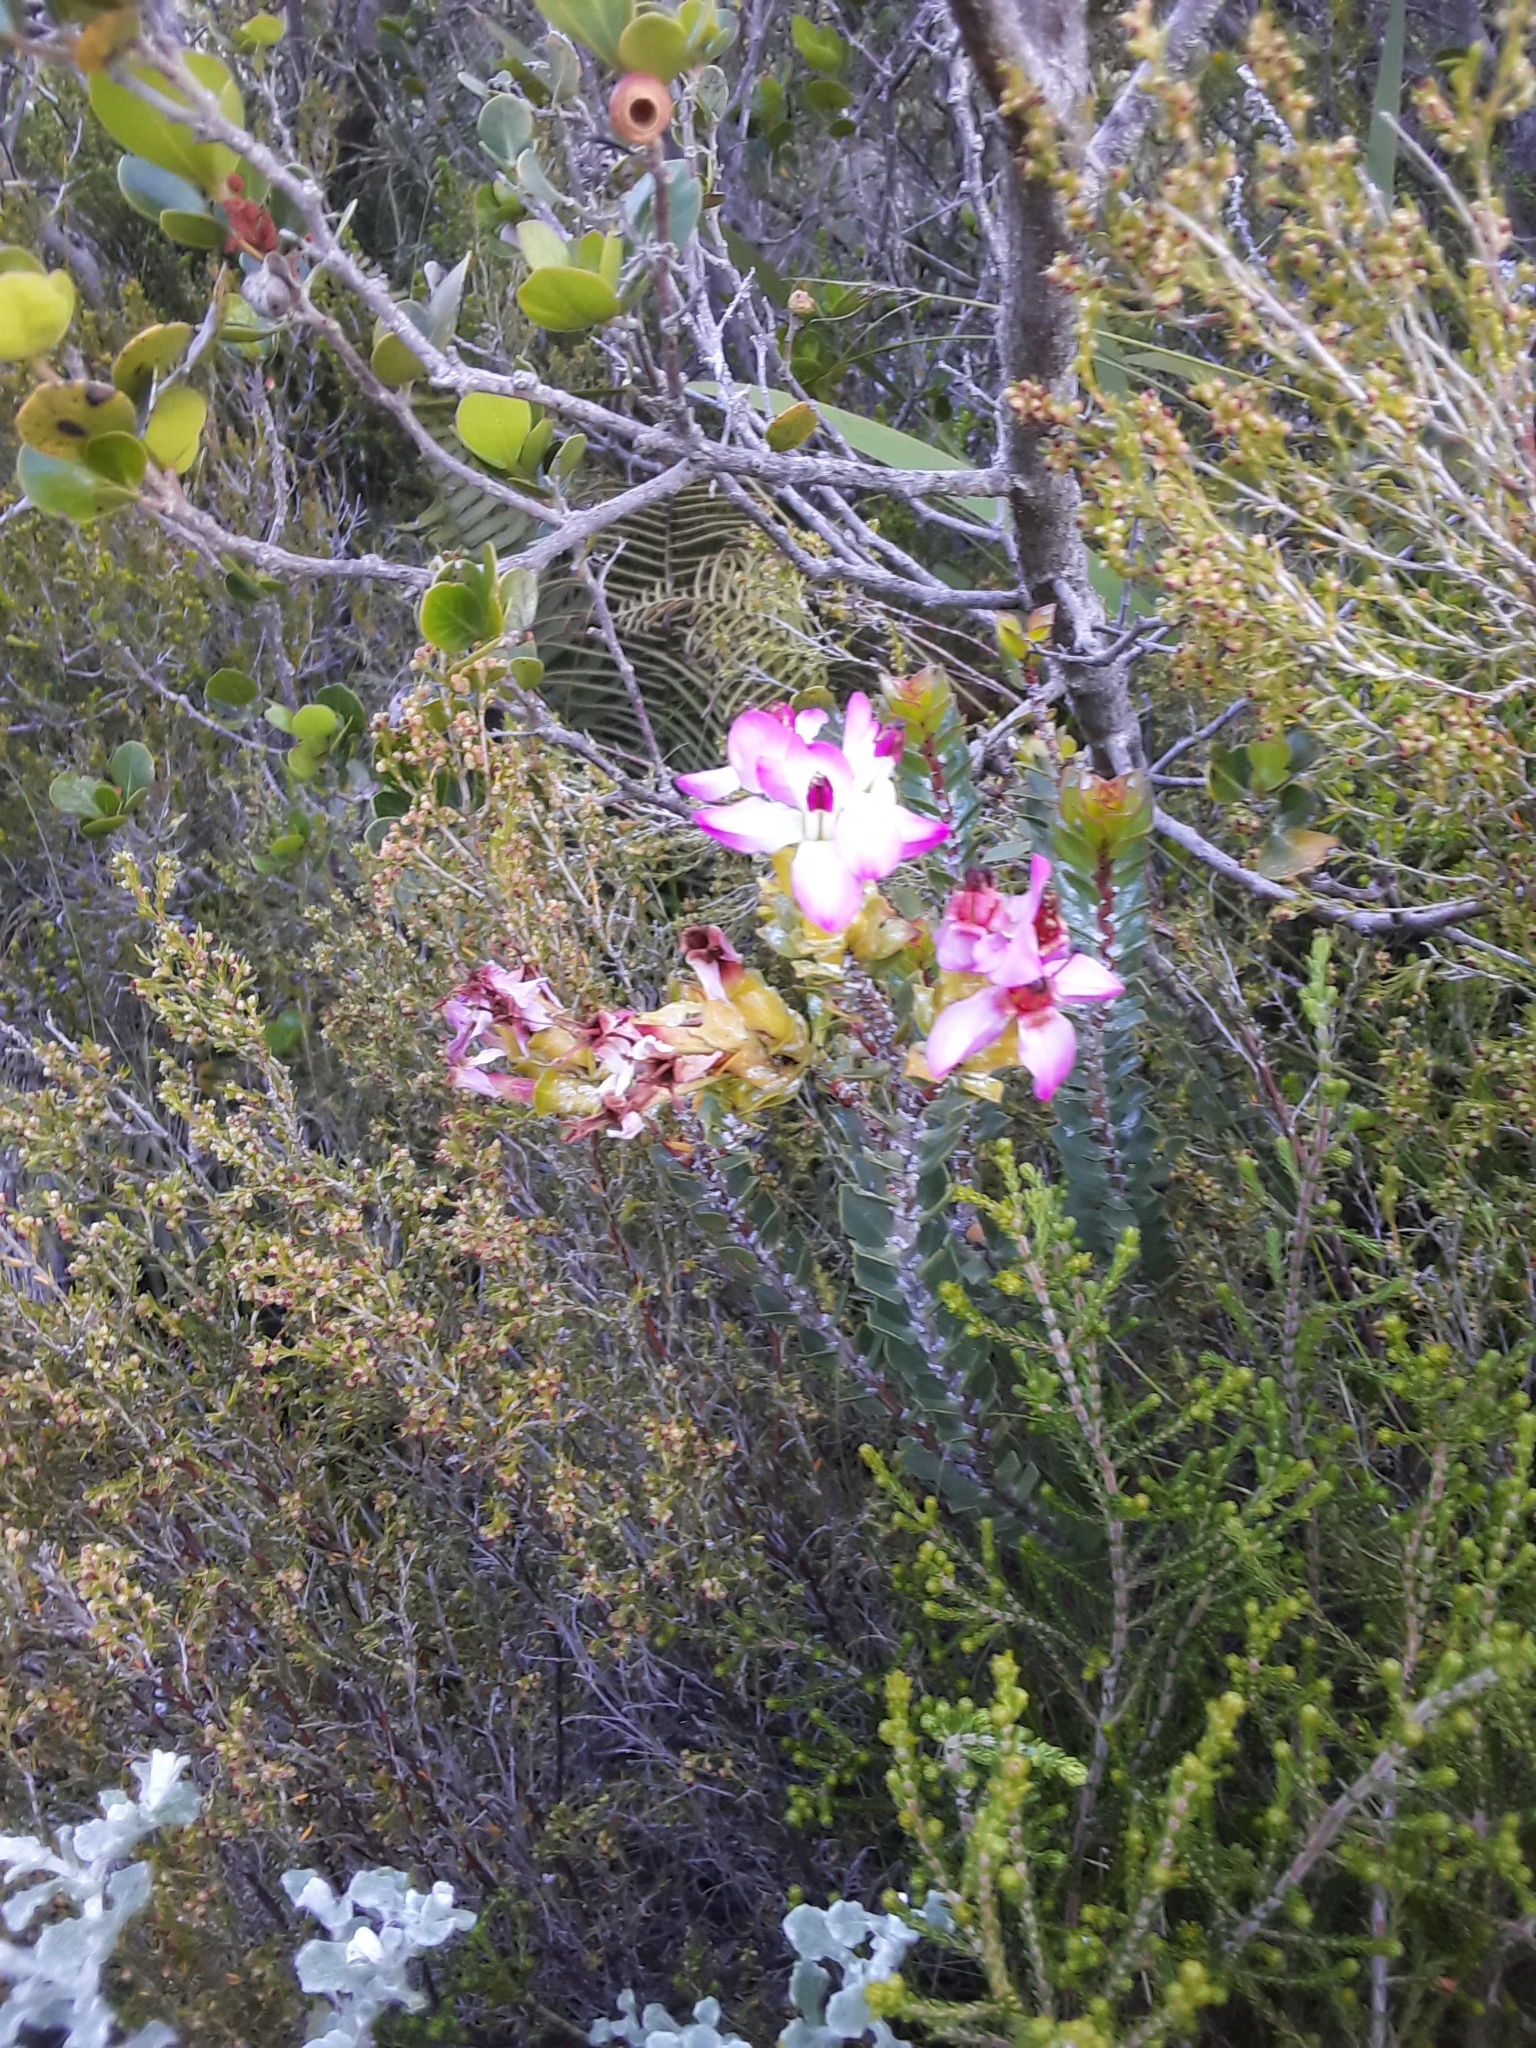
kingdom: Plantae
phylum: Tracheophyta
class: Magnoliopsida
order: Myrtales
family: Penaeaceae
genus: Saltera
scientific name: Saltera sarcocolla
